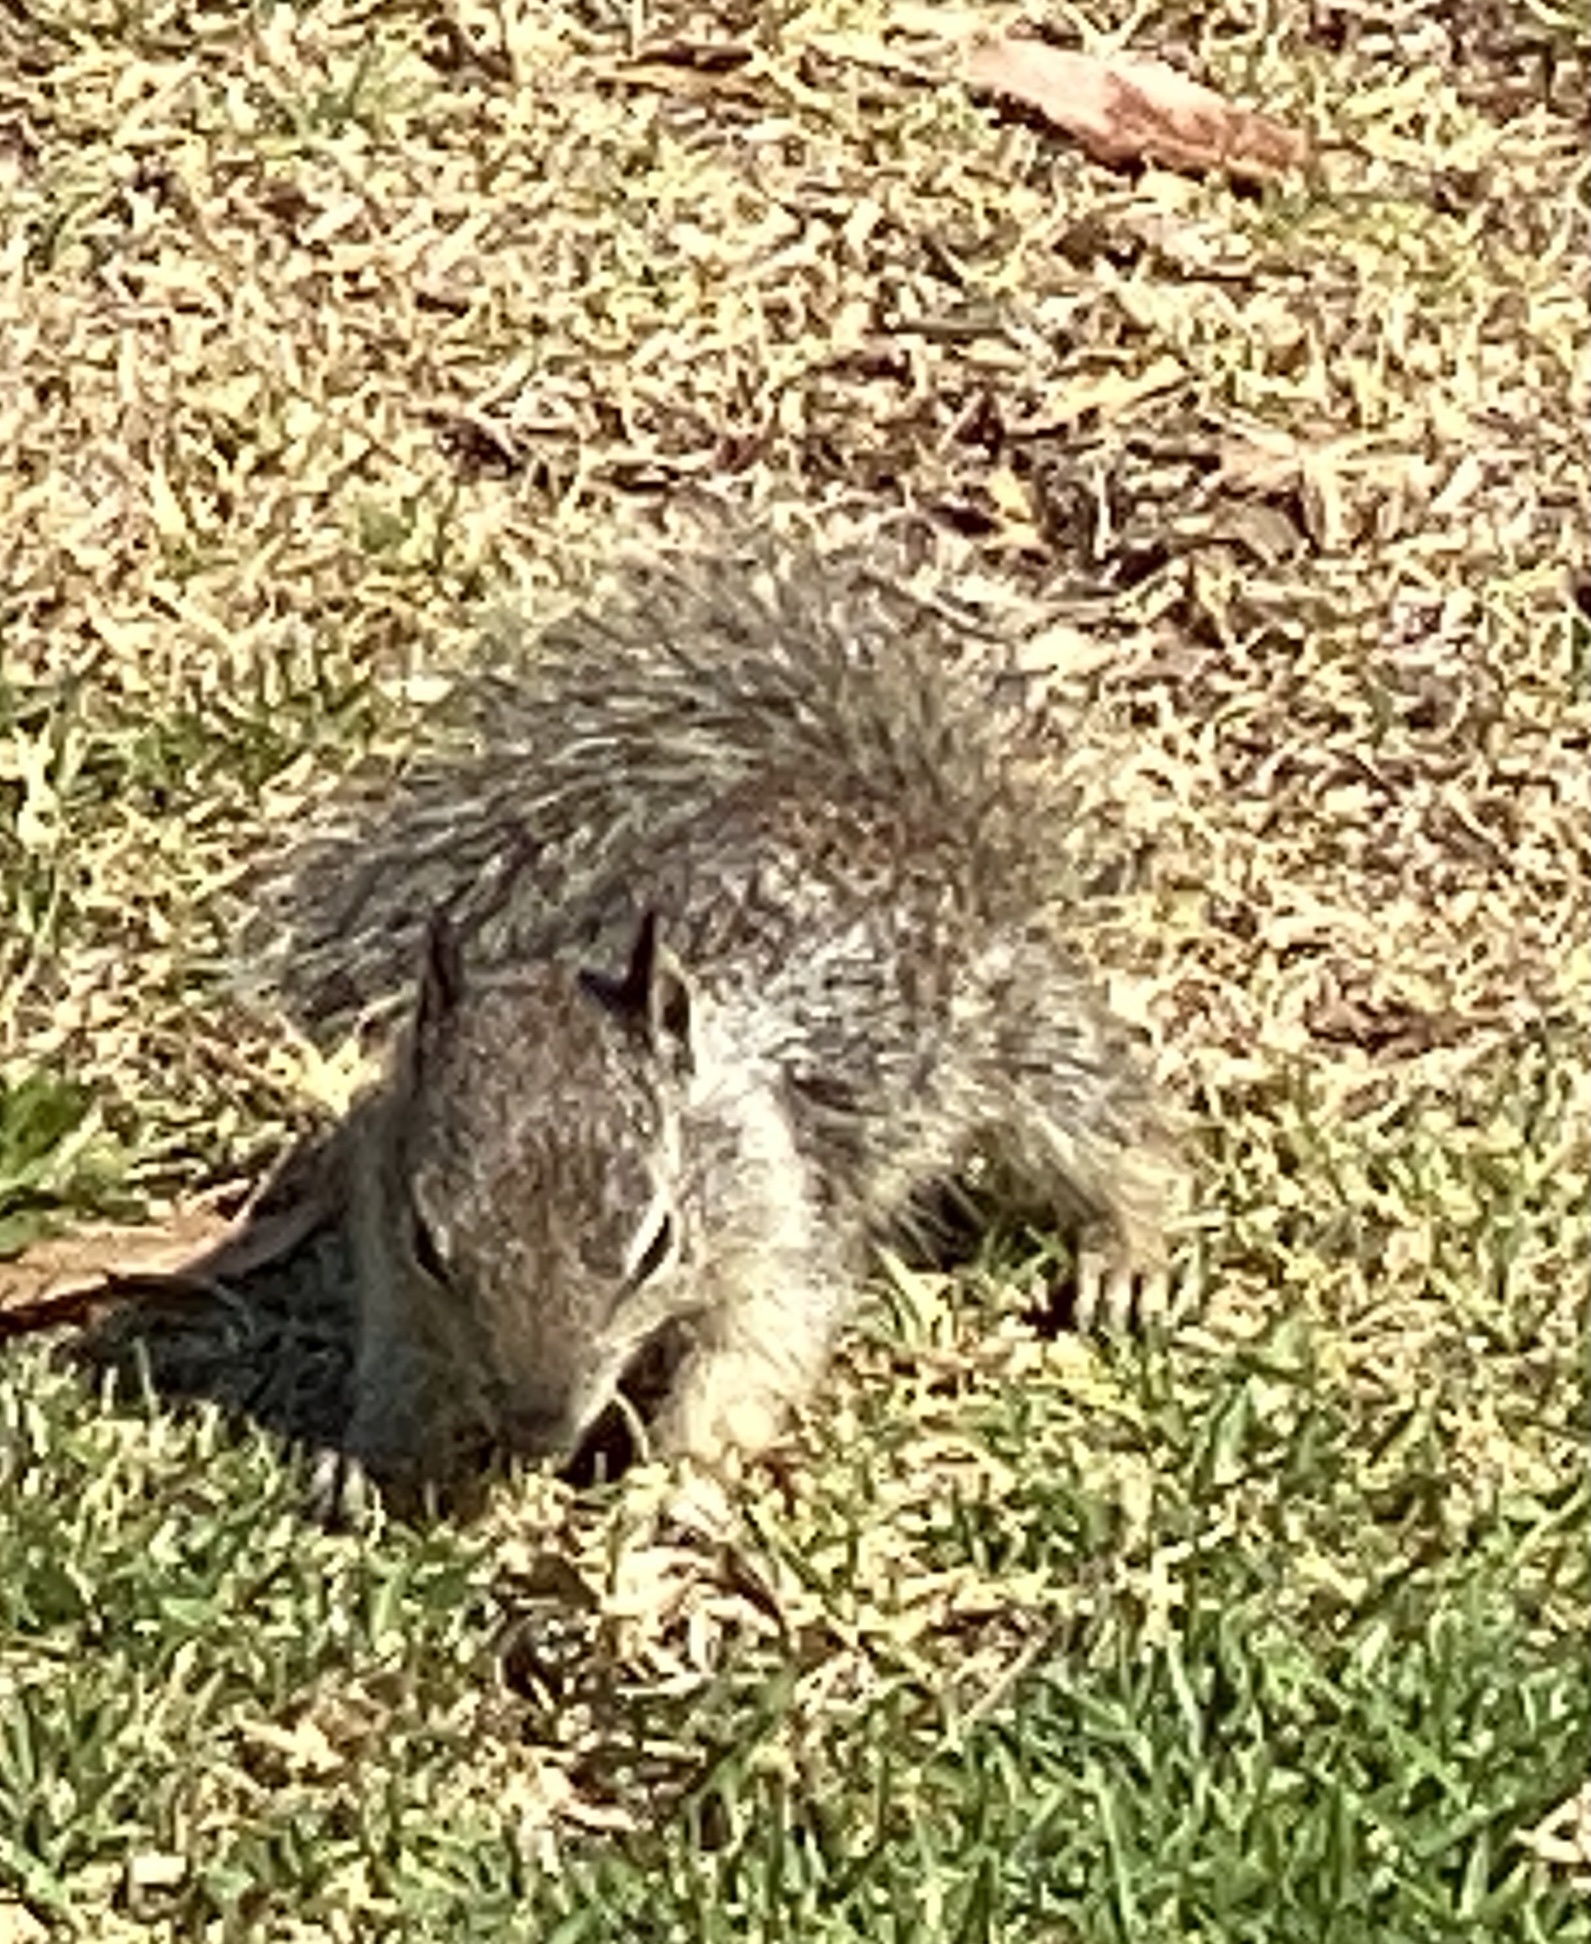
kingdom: Animalia
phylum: Chordata
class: Mammalia
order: Rodentia
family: Sciuridae
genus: Otospermophilus
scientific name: Otospermophilus beecheyi
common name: California ground squirrel
